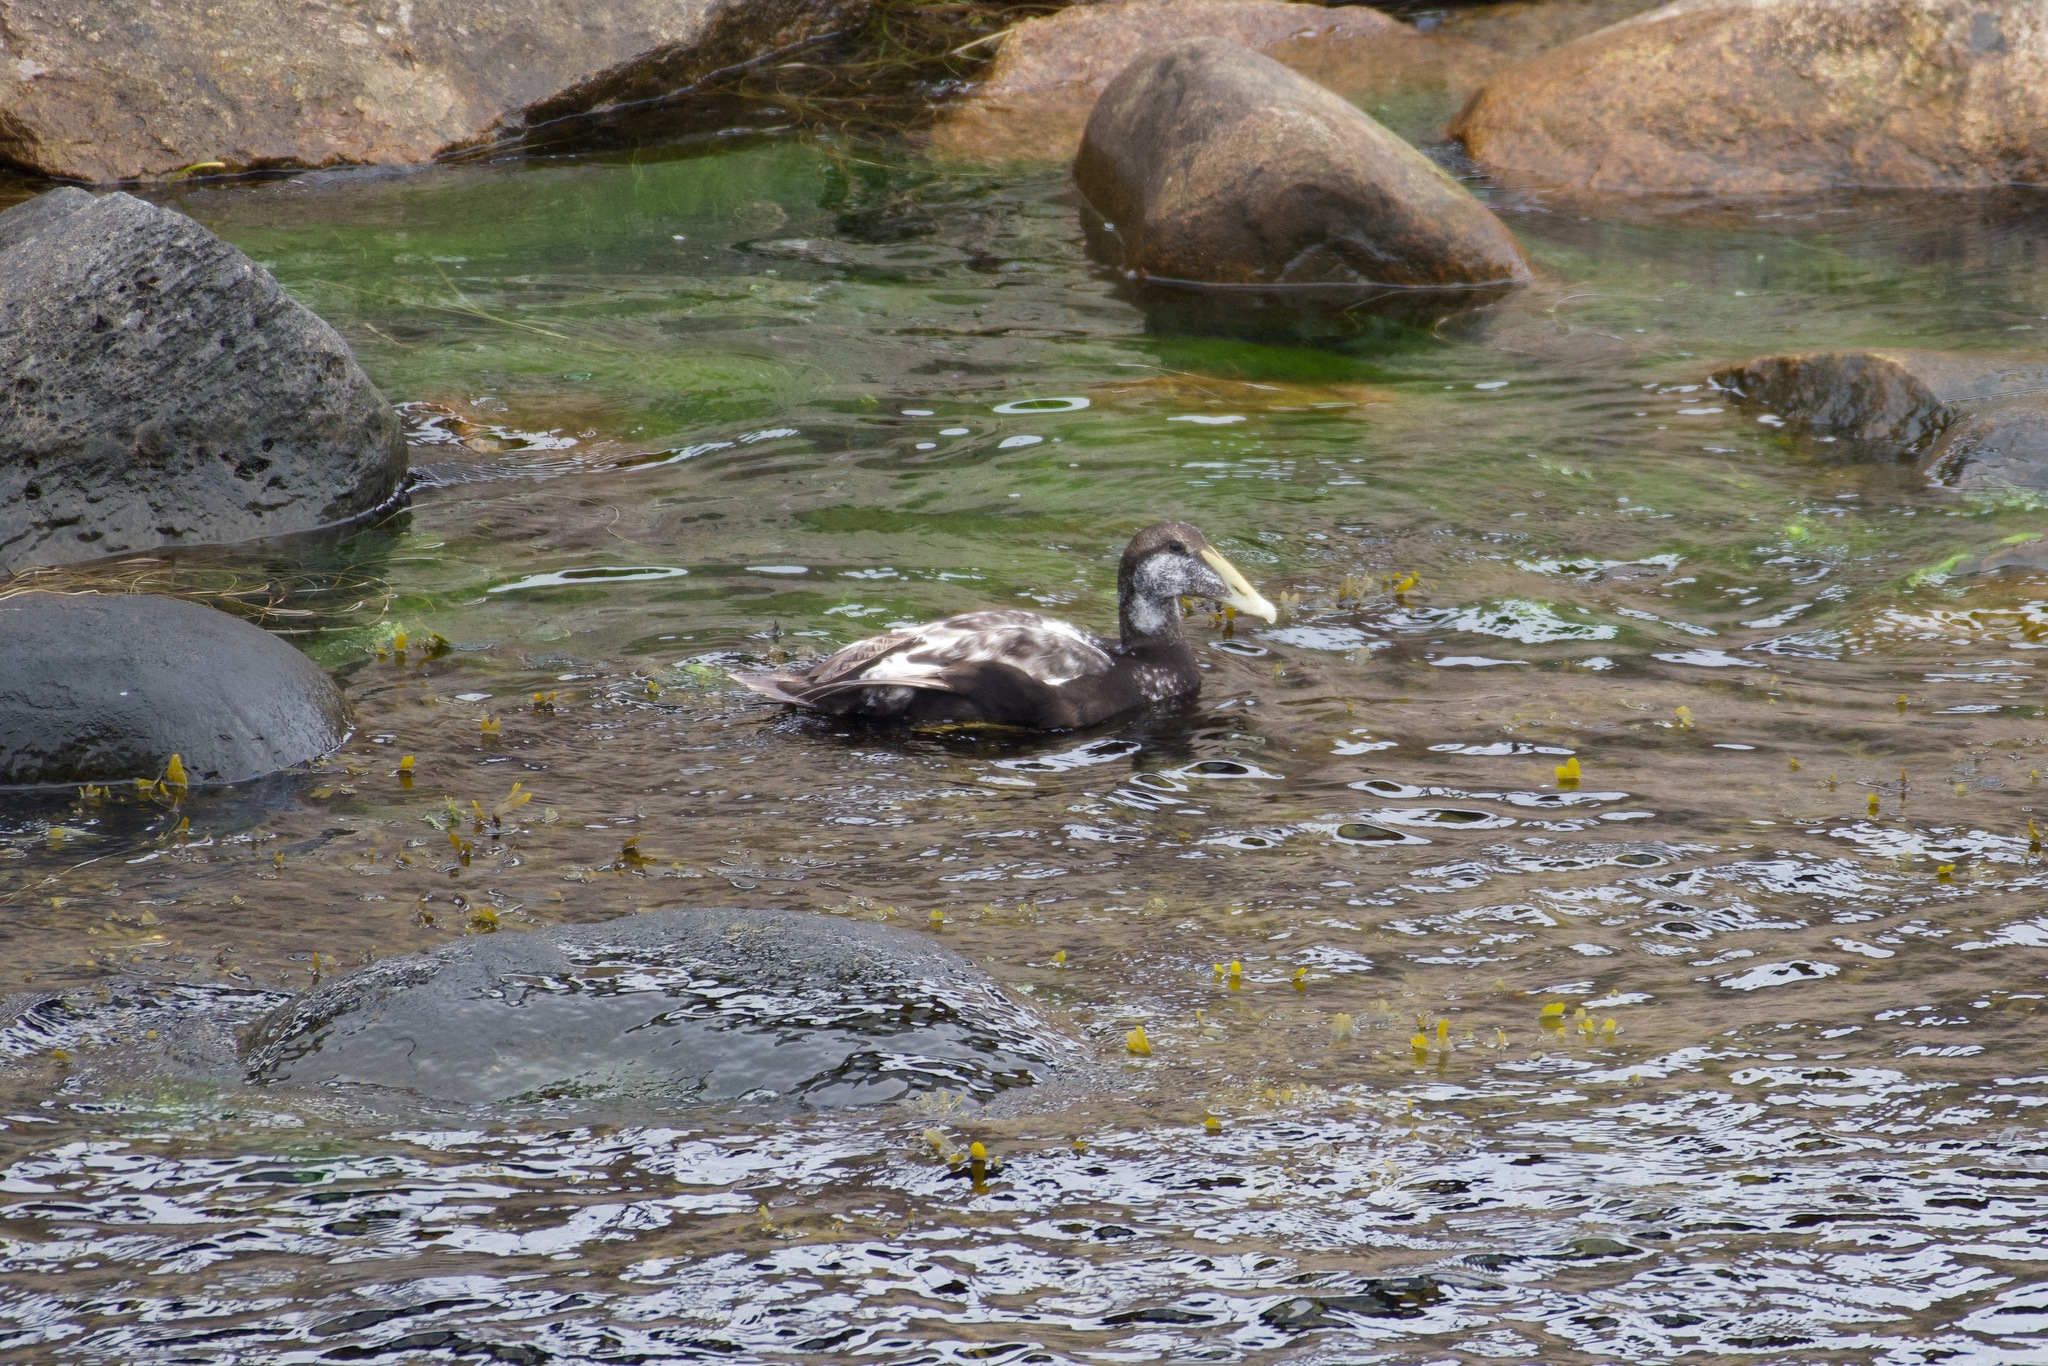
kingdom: Animalia
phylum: Chordata
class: Aves
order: Anseriformes
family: Anatidae
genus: Somateria
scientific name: Somateria mollissima
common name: Common eider
